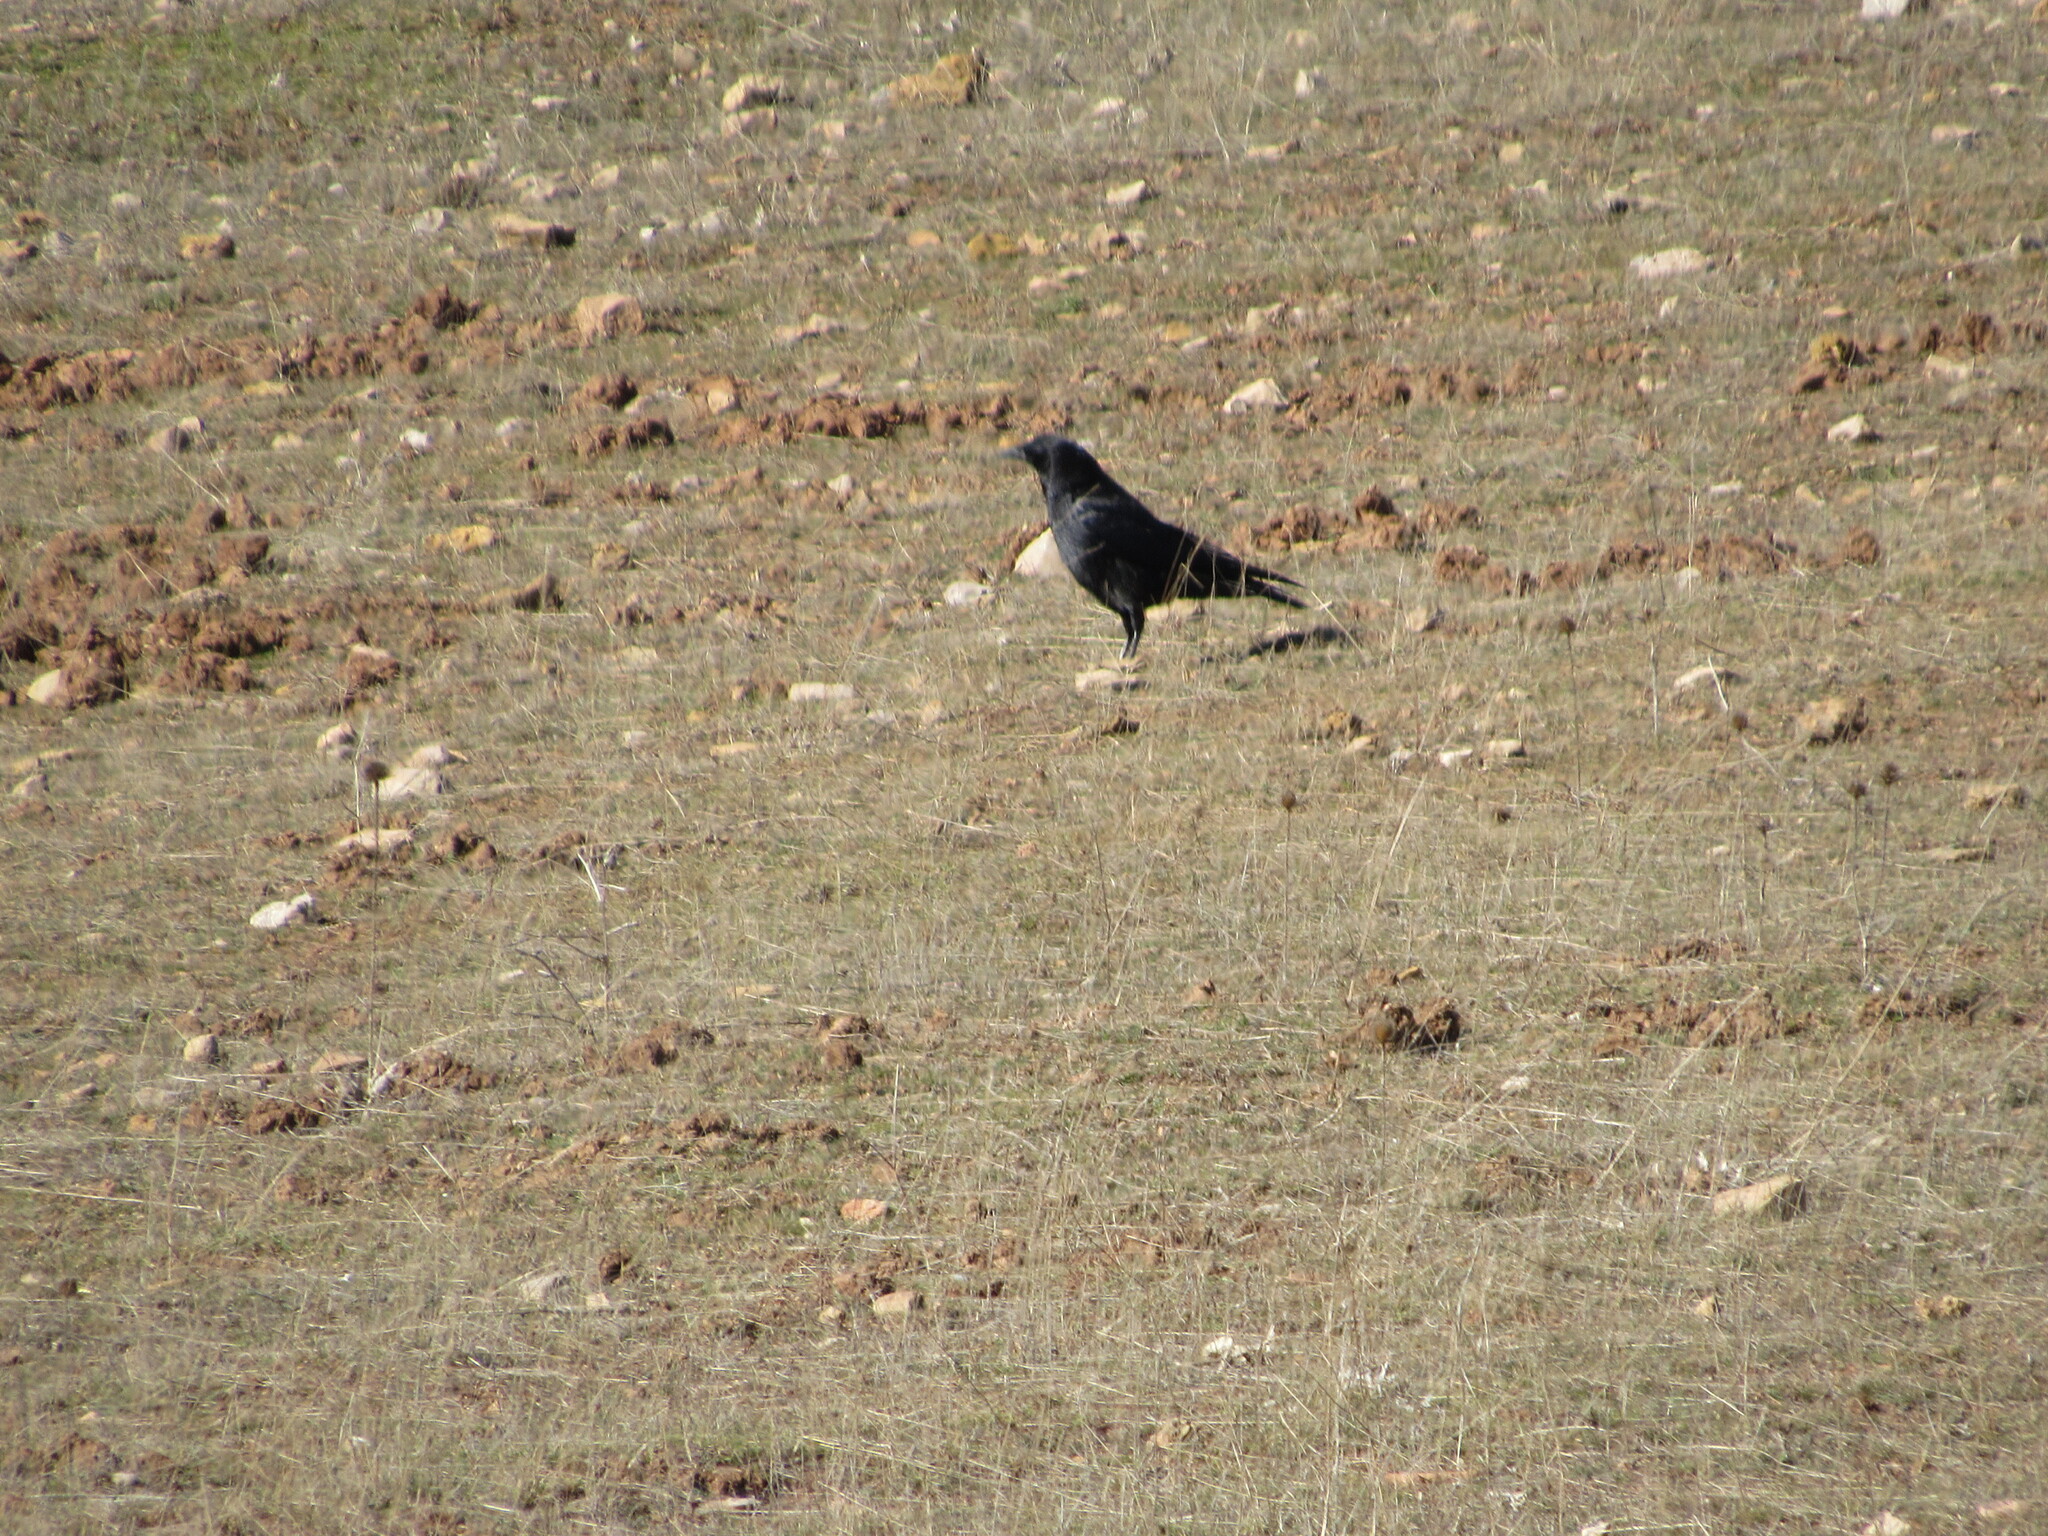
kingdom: Animalia
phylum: Chordata
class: Aves
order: Passeriformes
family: Corvidae
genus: Corvus
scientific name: Corvus corone
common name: Carrion crow
